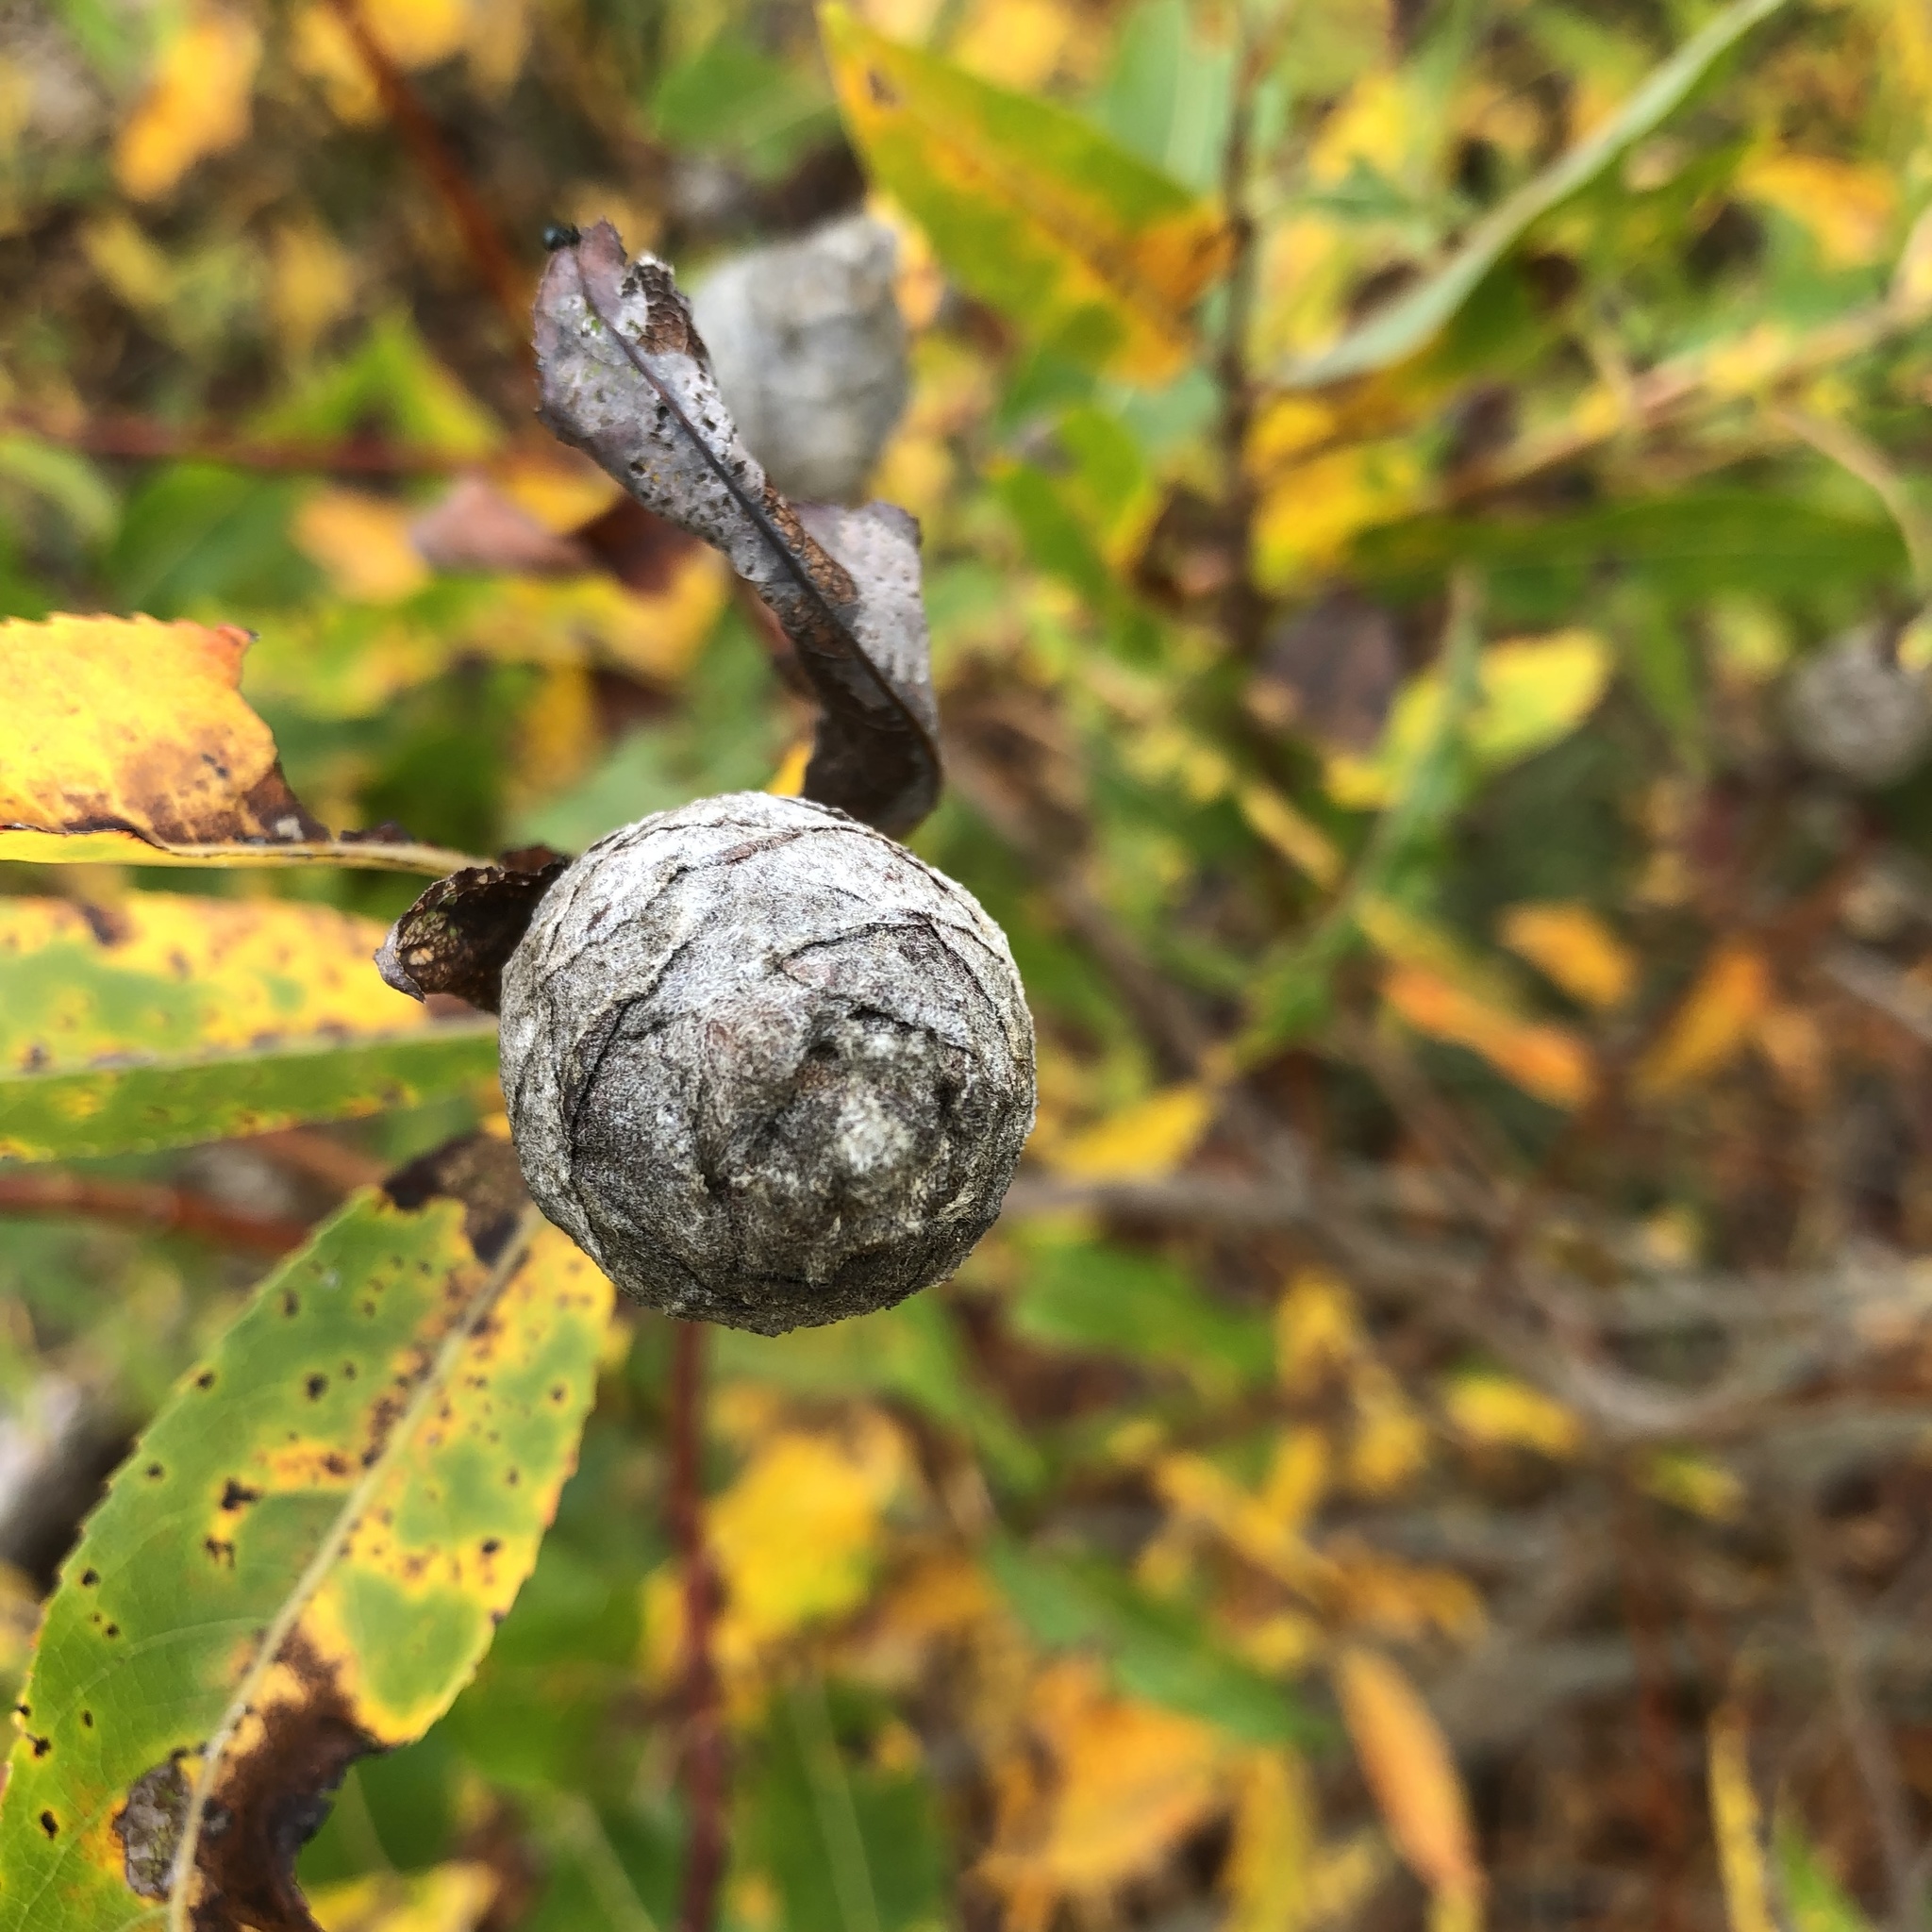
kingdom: Animalia
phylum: Arthropoda
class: Insecta
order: Diptera
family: Cecidomyiidae
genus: Rabdophaga
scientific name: Rabdophaga strobiloides
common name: Willow pinecone gall midge
